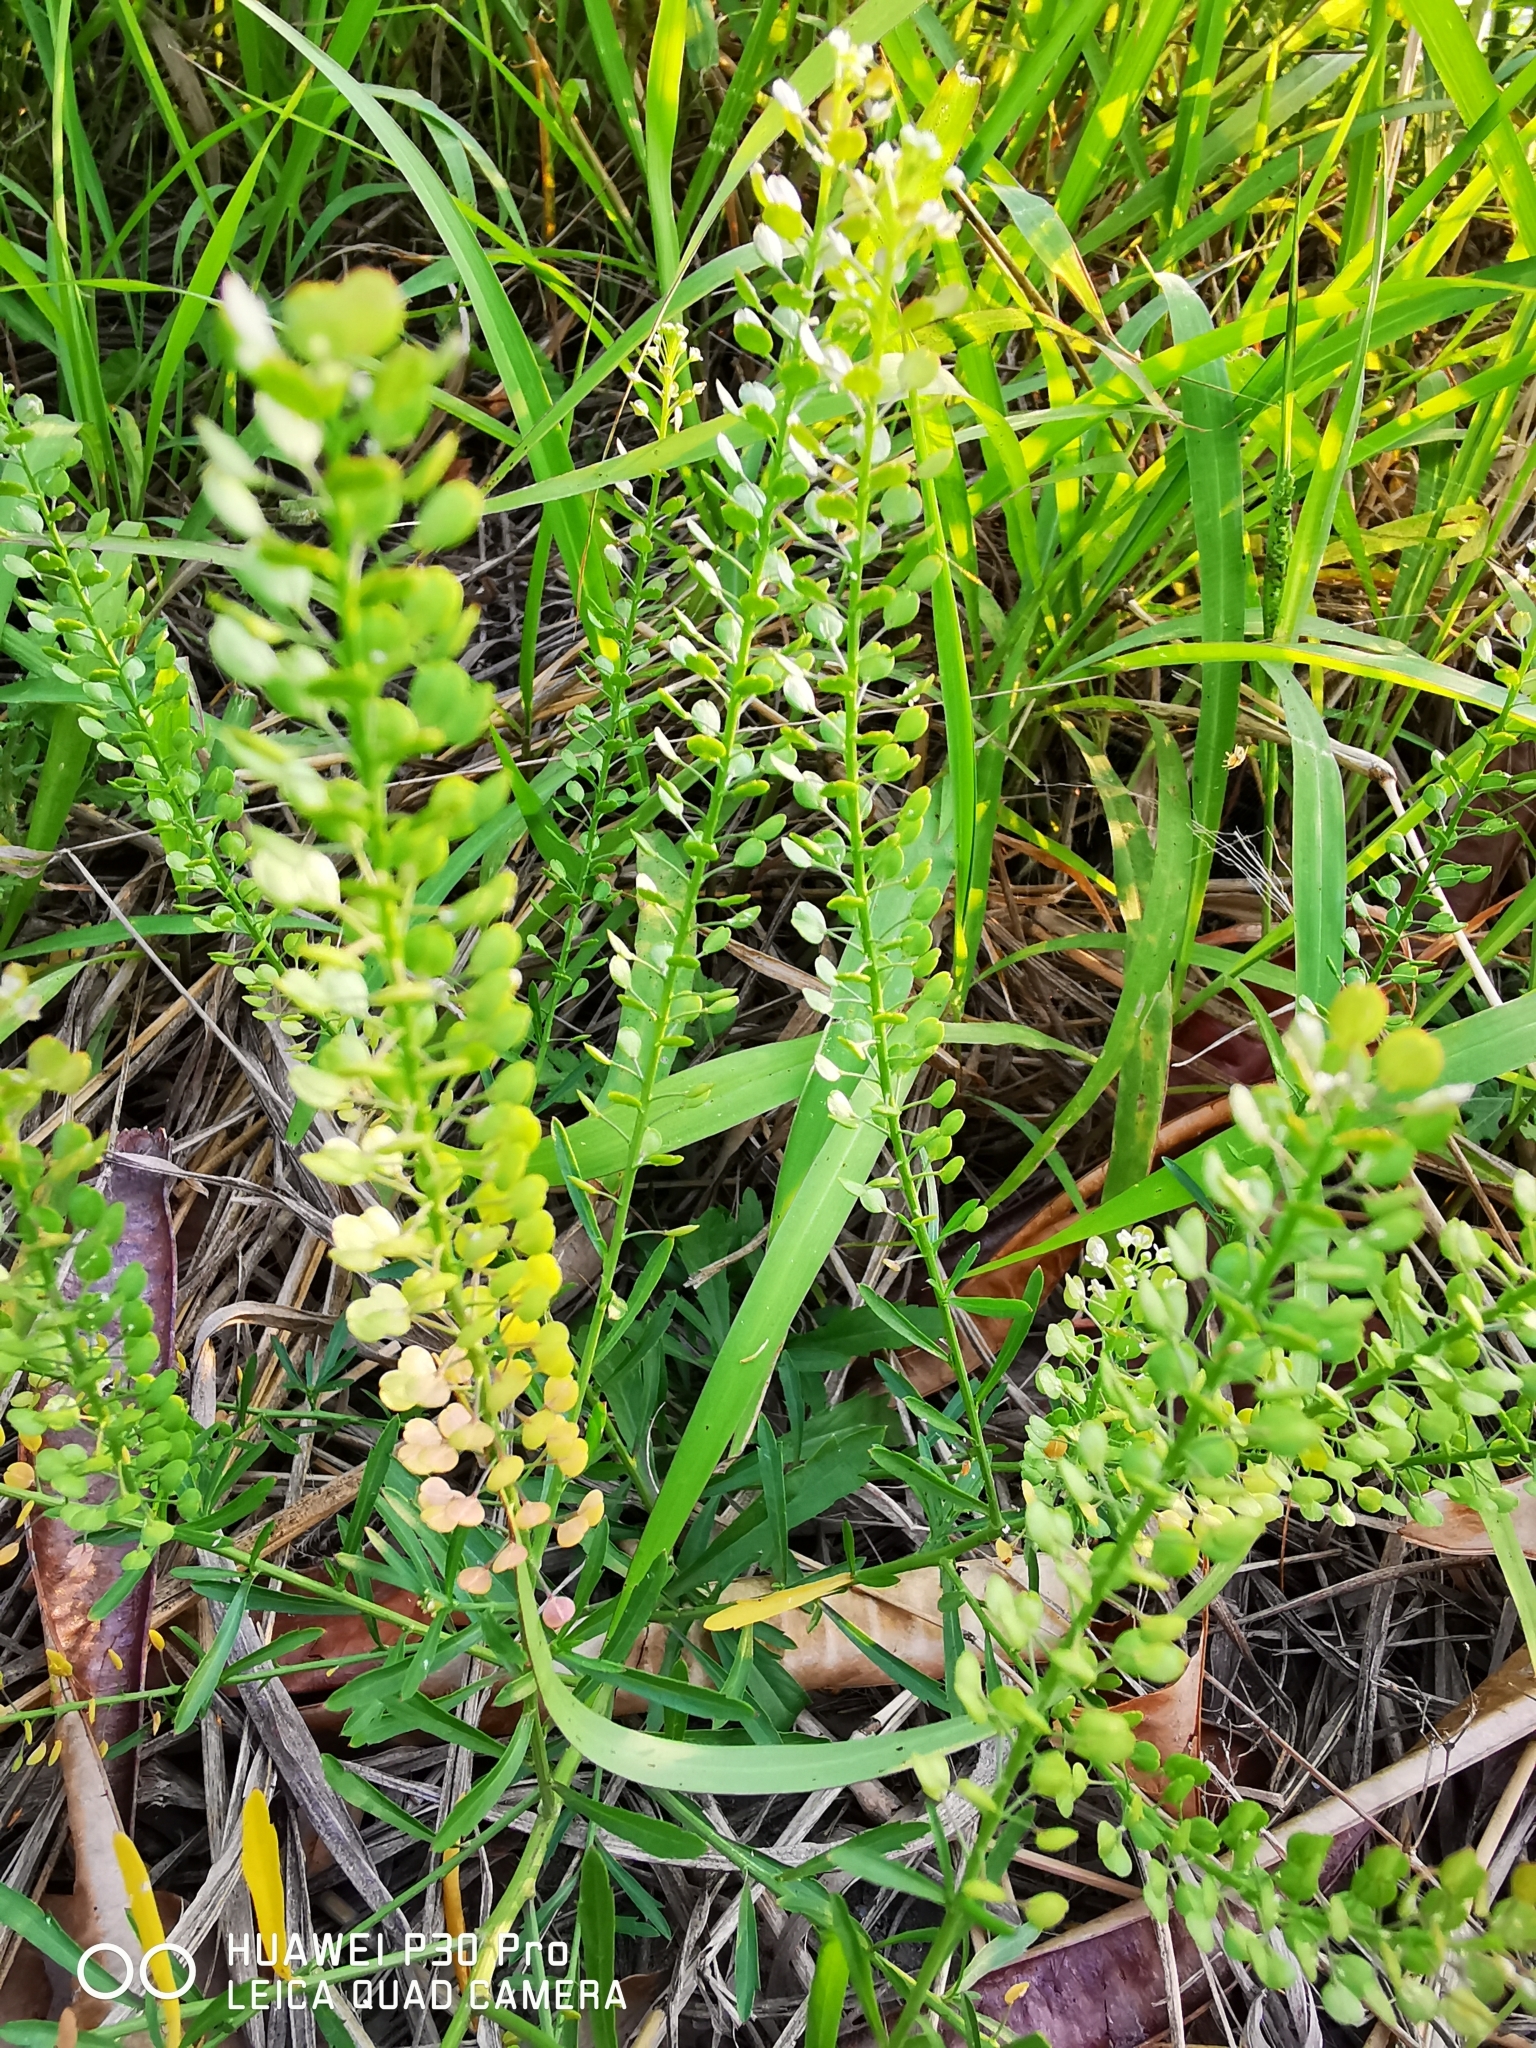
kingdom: Plantae
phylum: Tracheophyta
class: Magnoliopsida
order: Brassicales
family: Brassicaceae
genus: Lepidium
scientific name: Lepidium virginicum
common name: Least pepperwort
